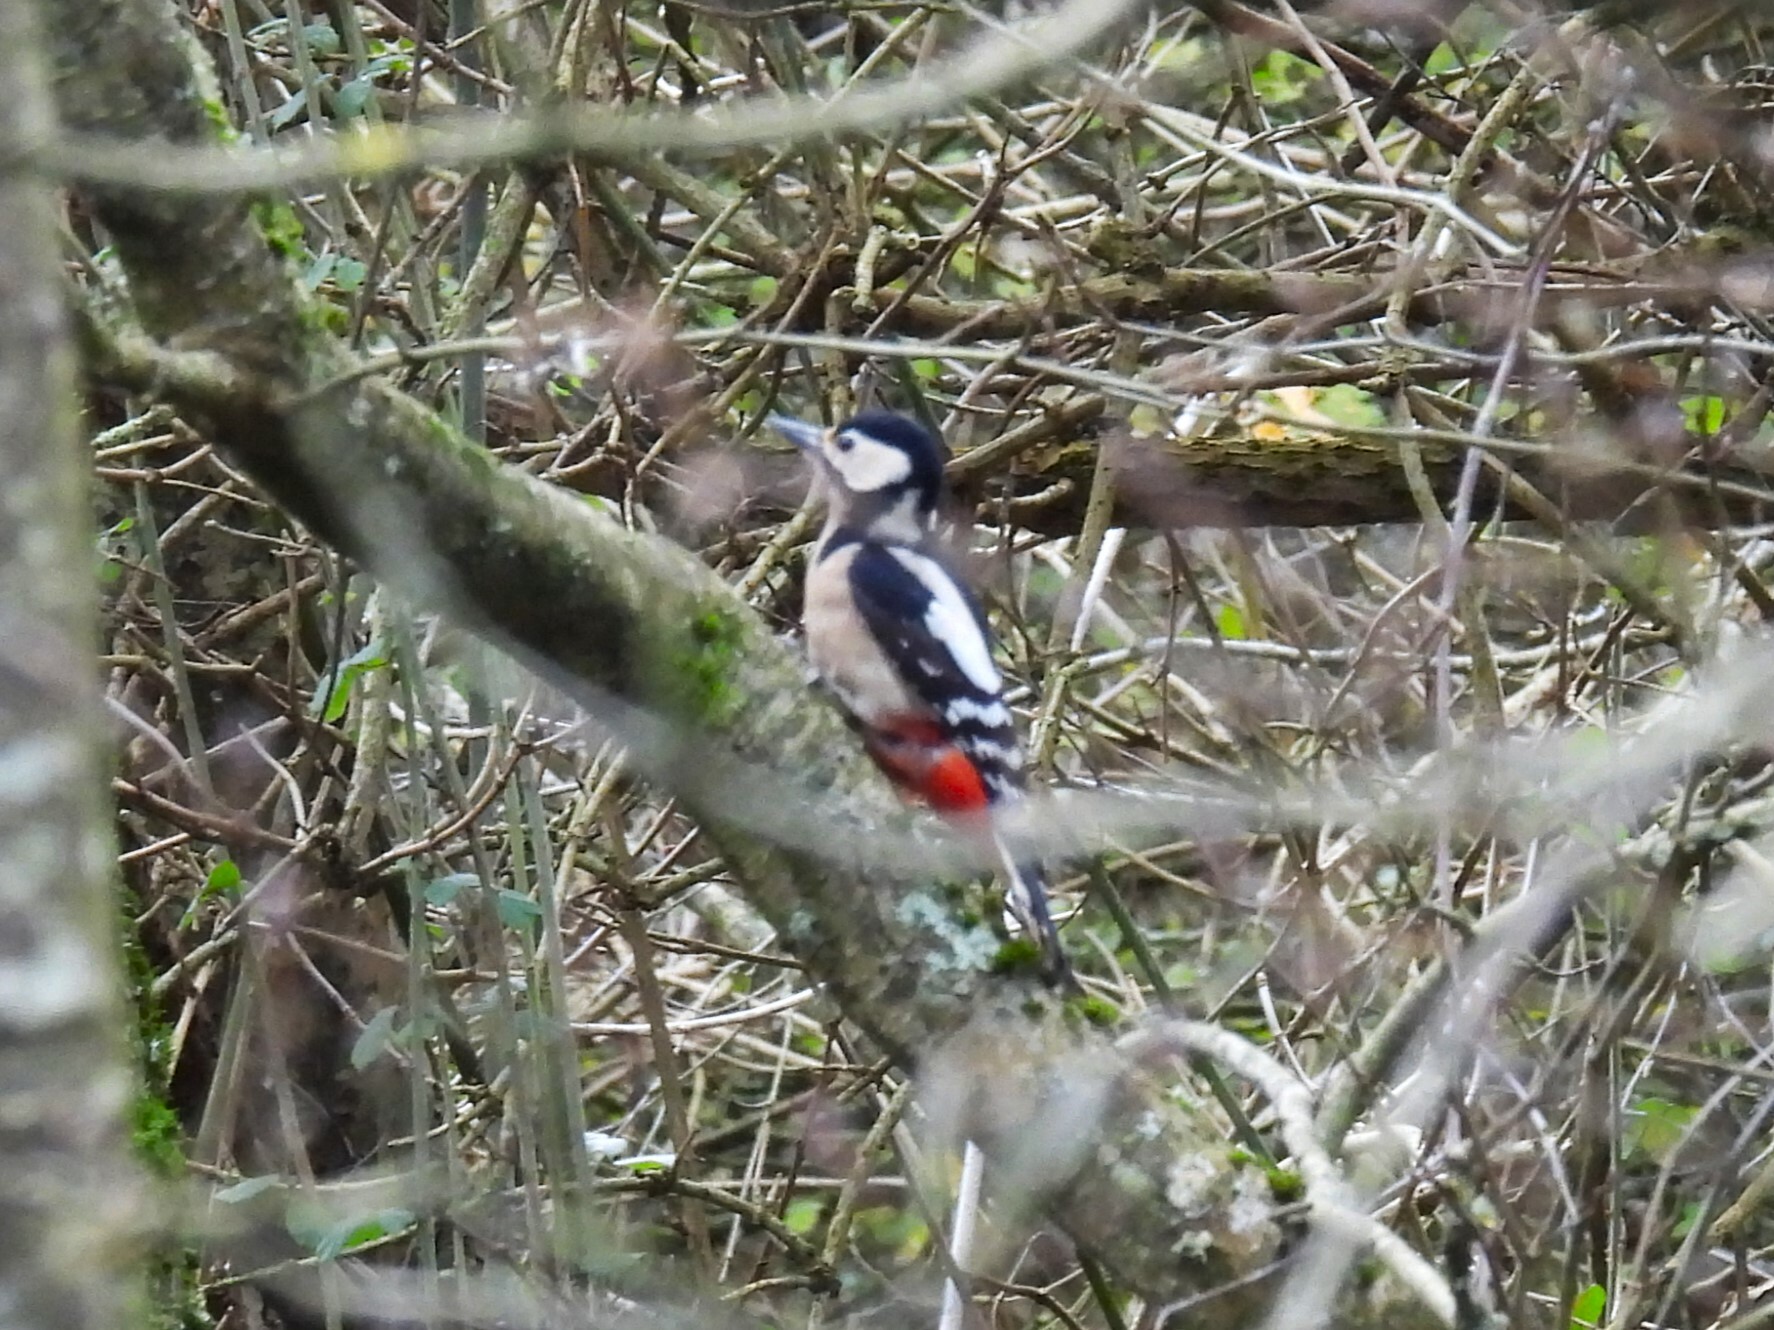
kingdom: Animalia
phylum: Chordata
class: Aves
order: Piciformes
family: Picidae
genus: Dendrocopos
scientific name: Dendrocopos major
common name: Great spotted woodpecker
